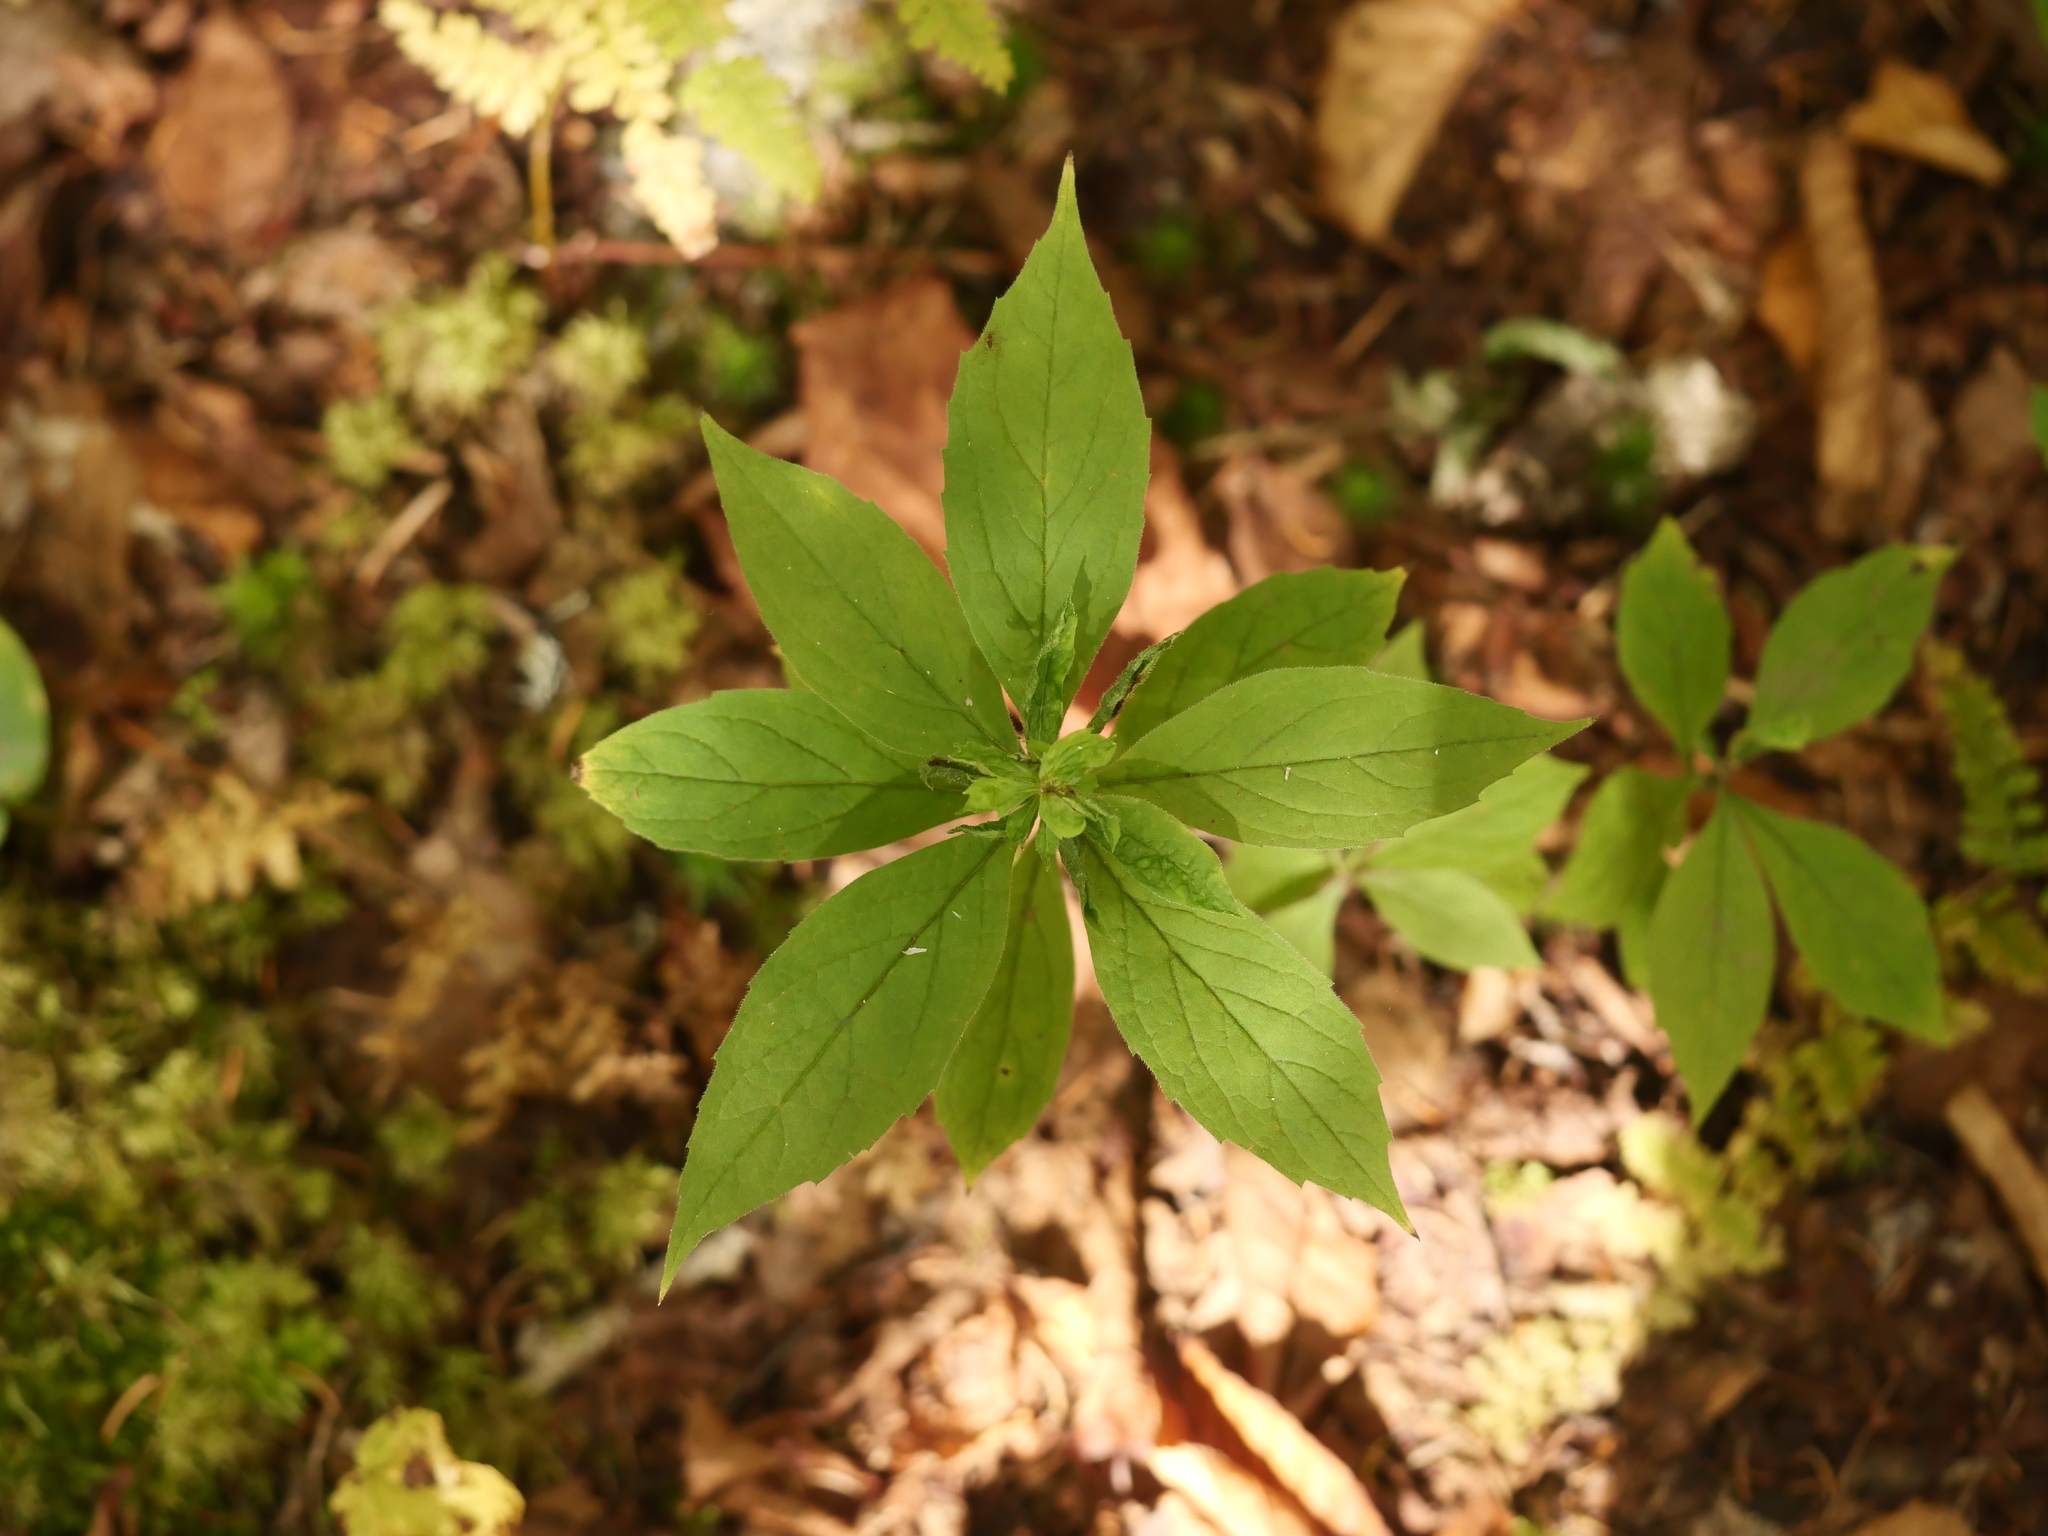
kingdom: Plantae
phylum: Tracheophyta
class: Magnoliopsida
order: Asterales
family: Asteraceae
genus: Oclemena
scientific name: Oclemena acuminata
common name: Mountain aster
